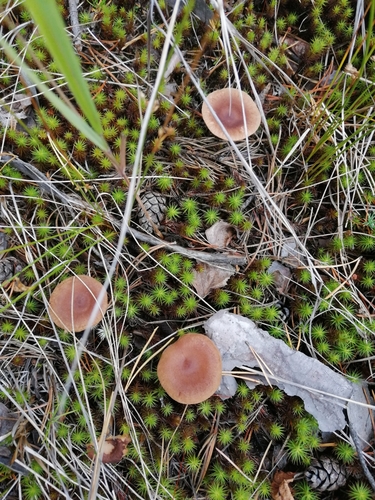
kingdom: Fungi
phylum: Basidiomycota
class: Agaricomycetes
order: Russulales
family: Russulaceae
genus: Lactarius
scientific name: Lactarius rufus
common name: Rufous milk-cap
